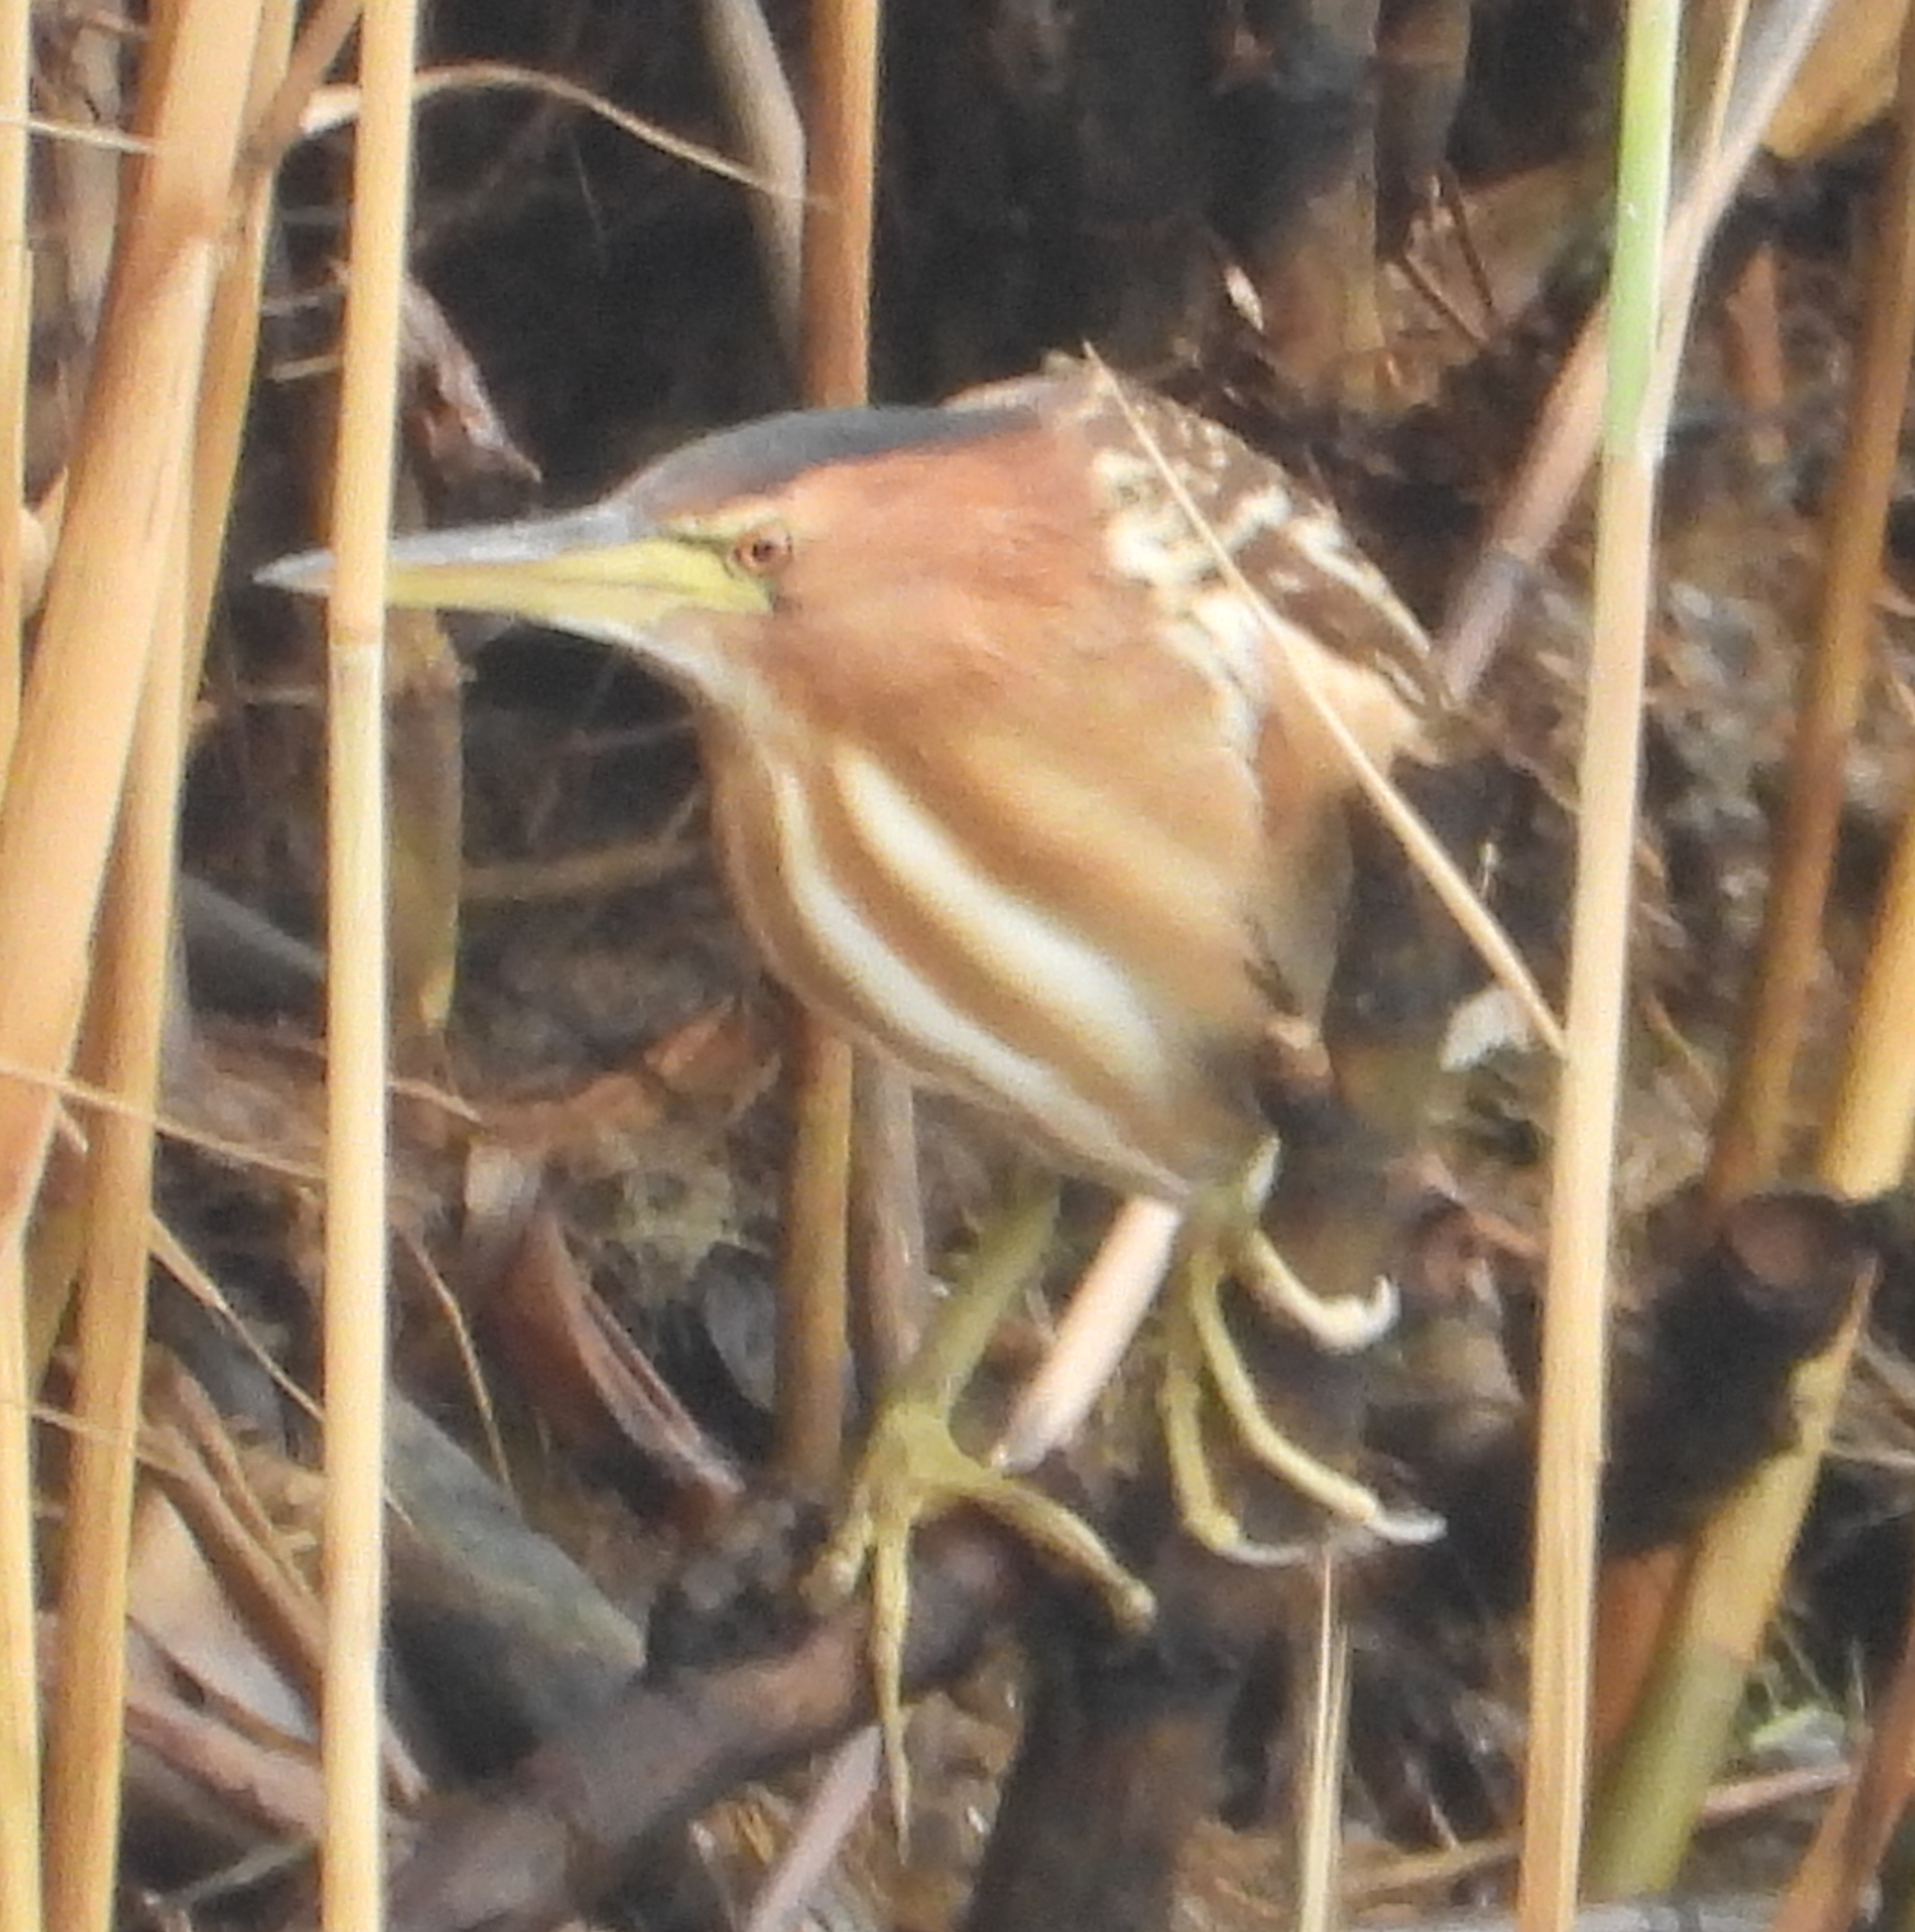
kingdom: Animalia
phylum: Chordata
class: Aves
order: Pelecaniformes
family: Ardeidae
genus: Ixobrychus
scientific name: Ixobrychus minutus
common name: Little bittern
